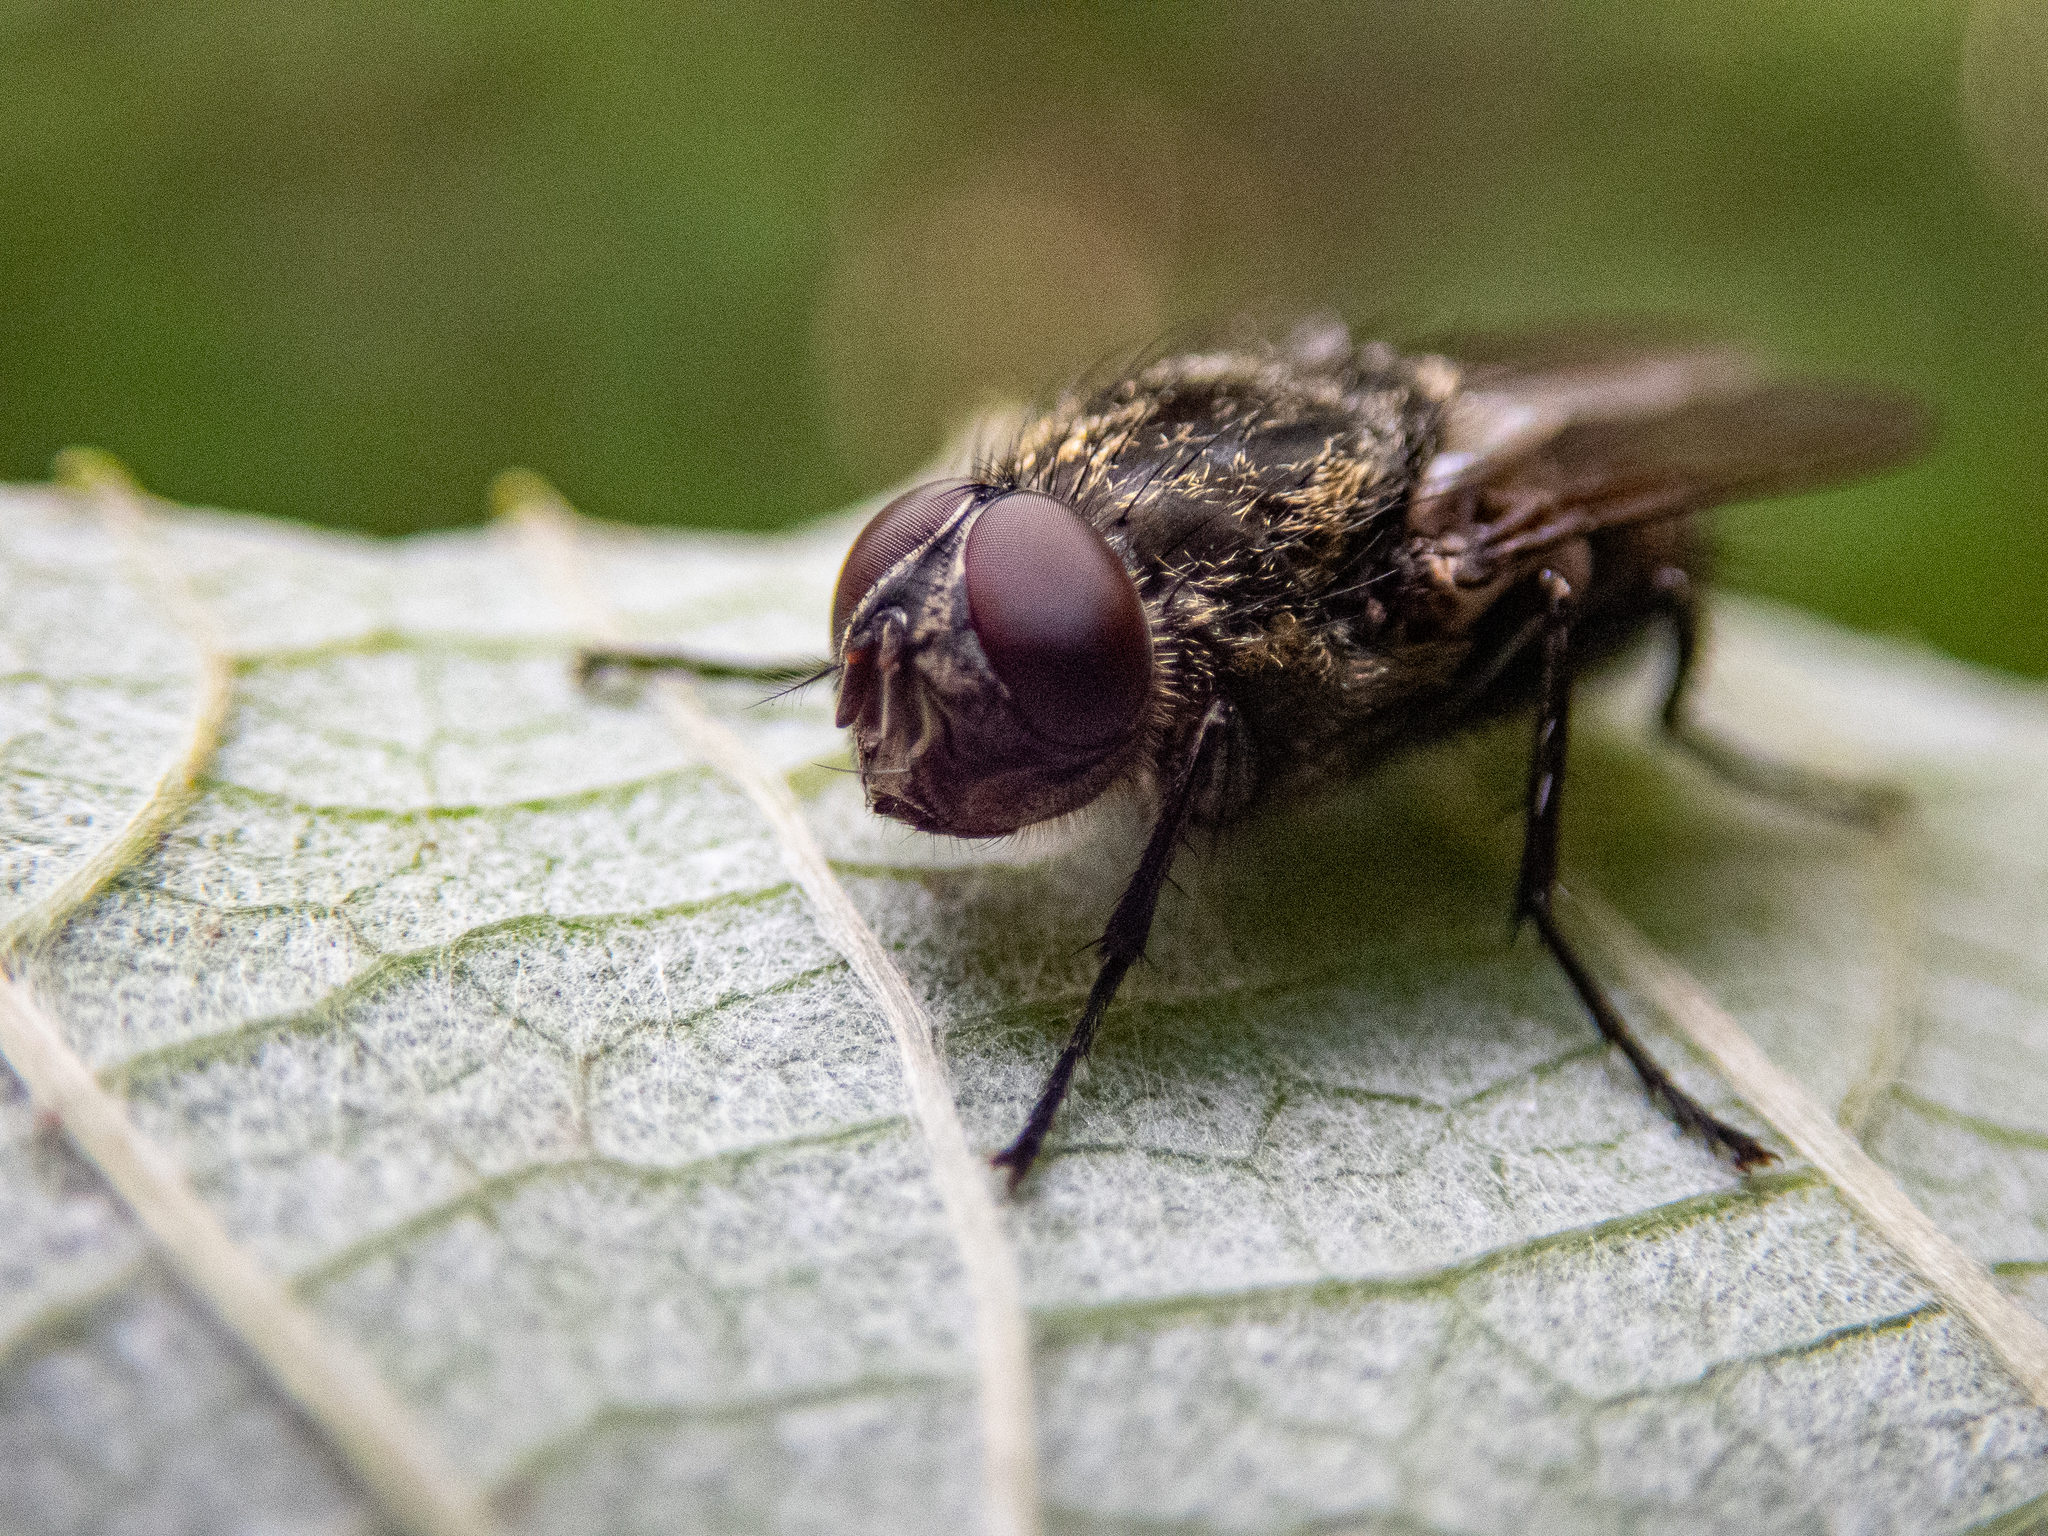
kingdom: Animalia
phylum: Arthropoda
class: Insecta
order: Diptera
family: Polleniidae
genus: Pollenia
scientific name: Pollenia
